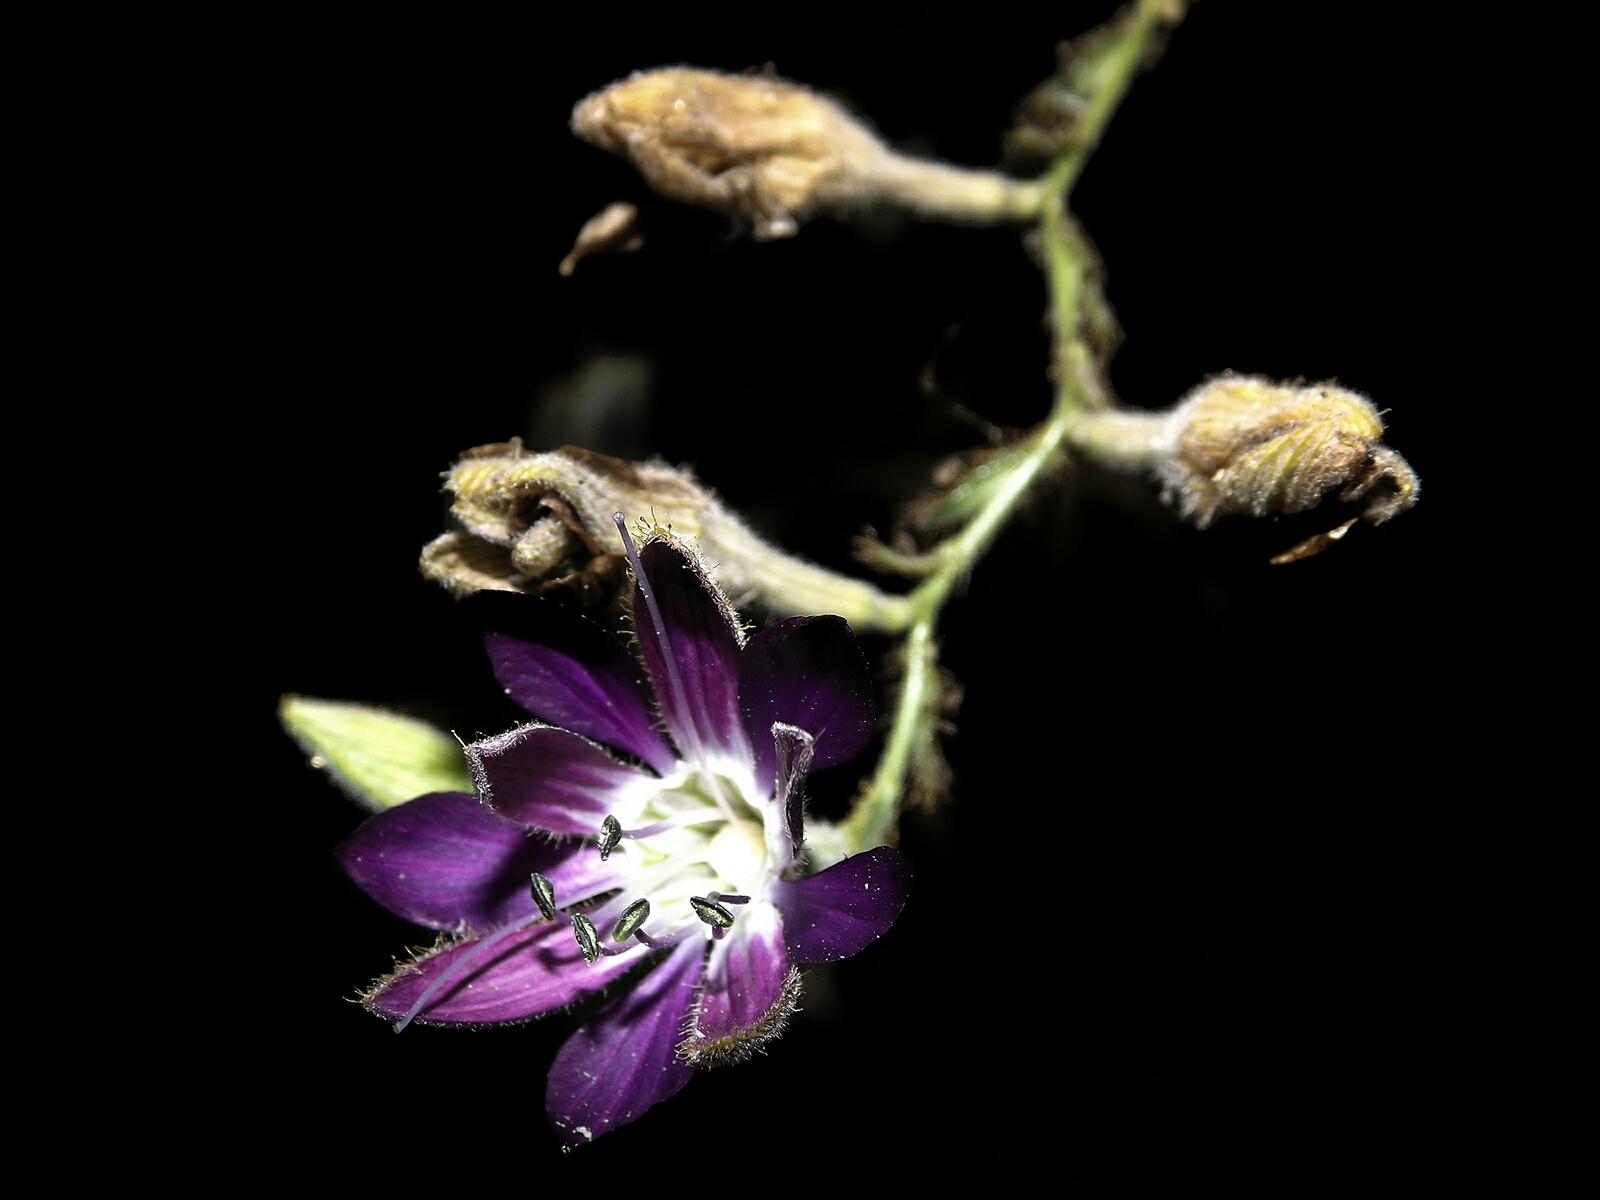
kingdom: Plantae
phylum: Tracheophyta
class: Magnoliopsida
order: Malpighiales
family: Malesherbiaceae
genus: Malesherbia
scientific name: Malesherbia linearifolia
